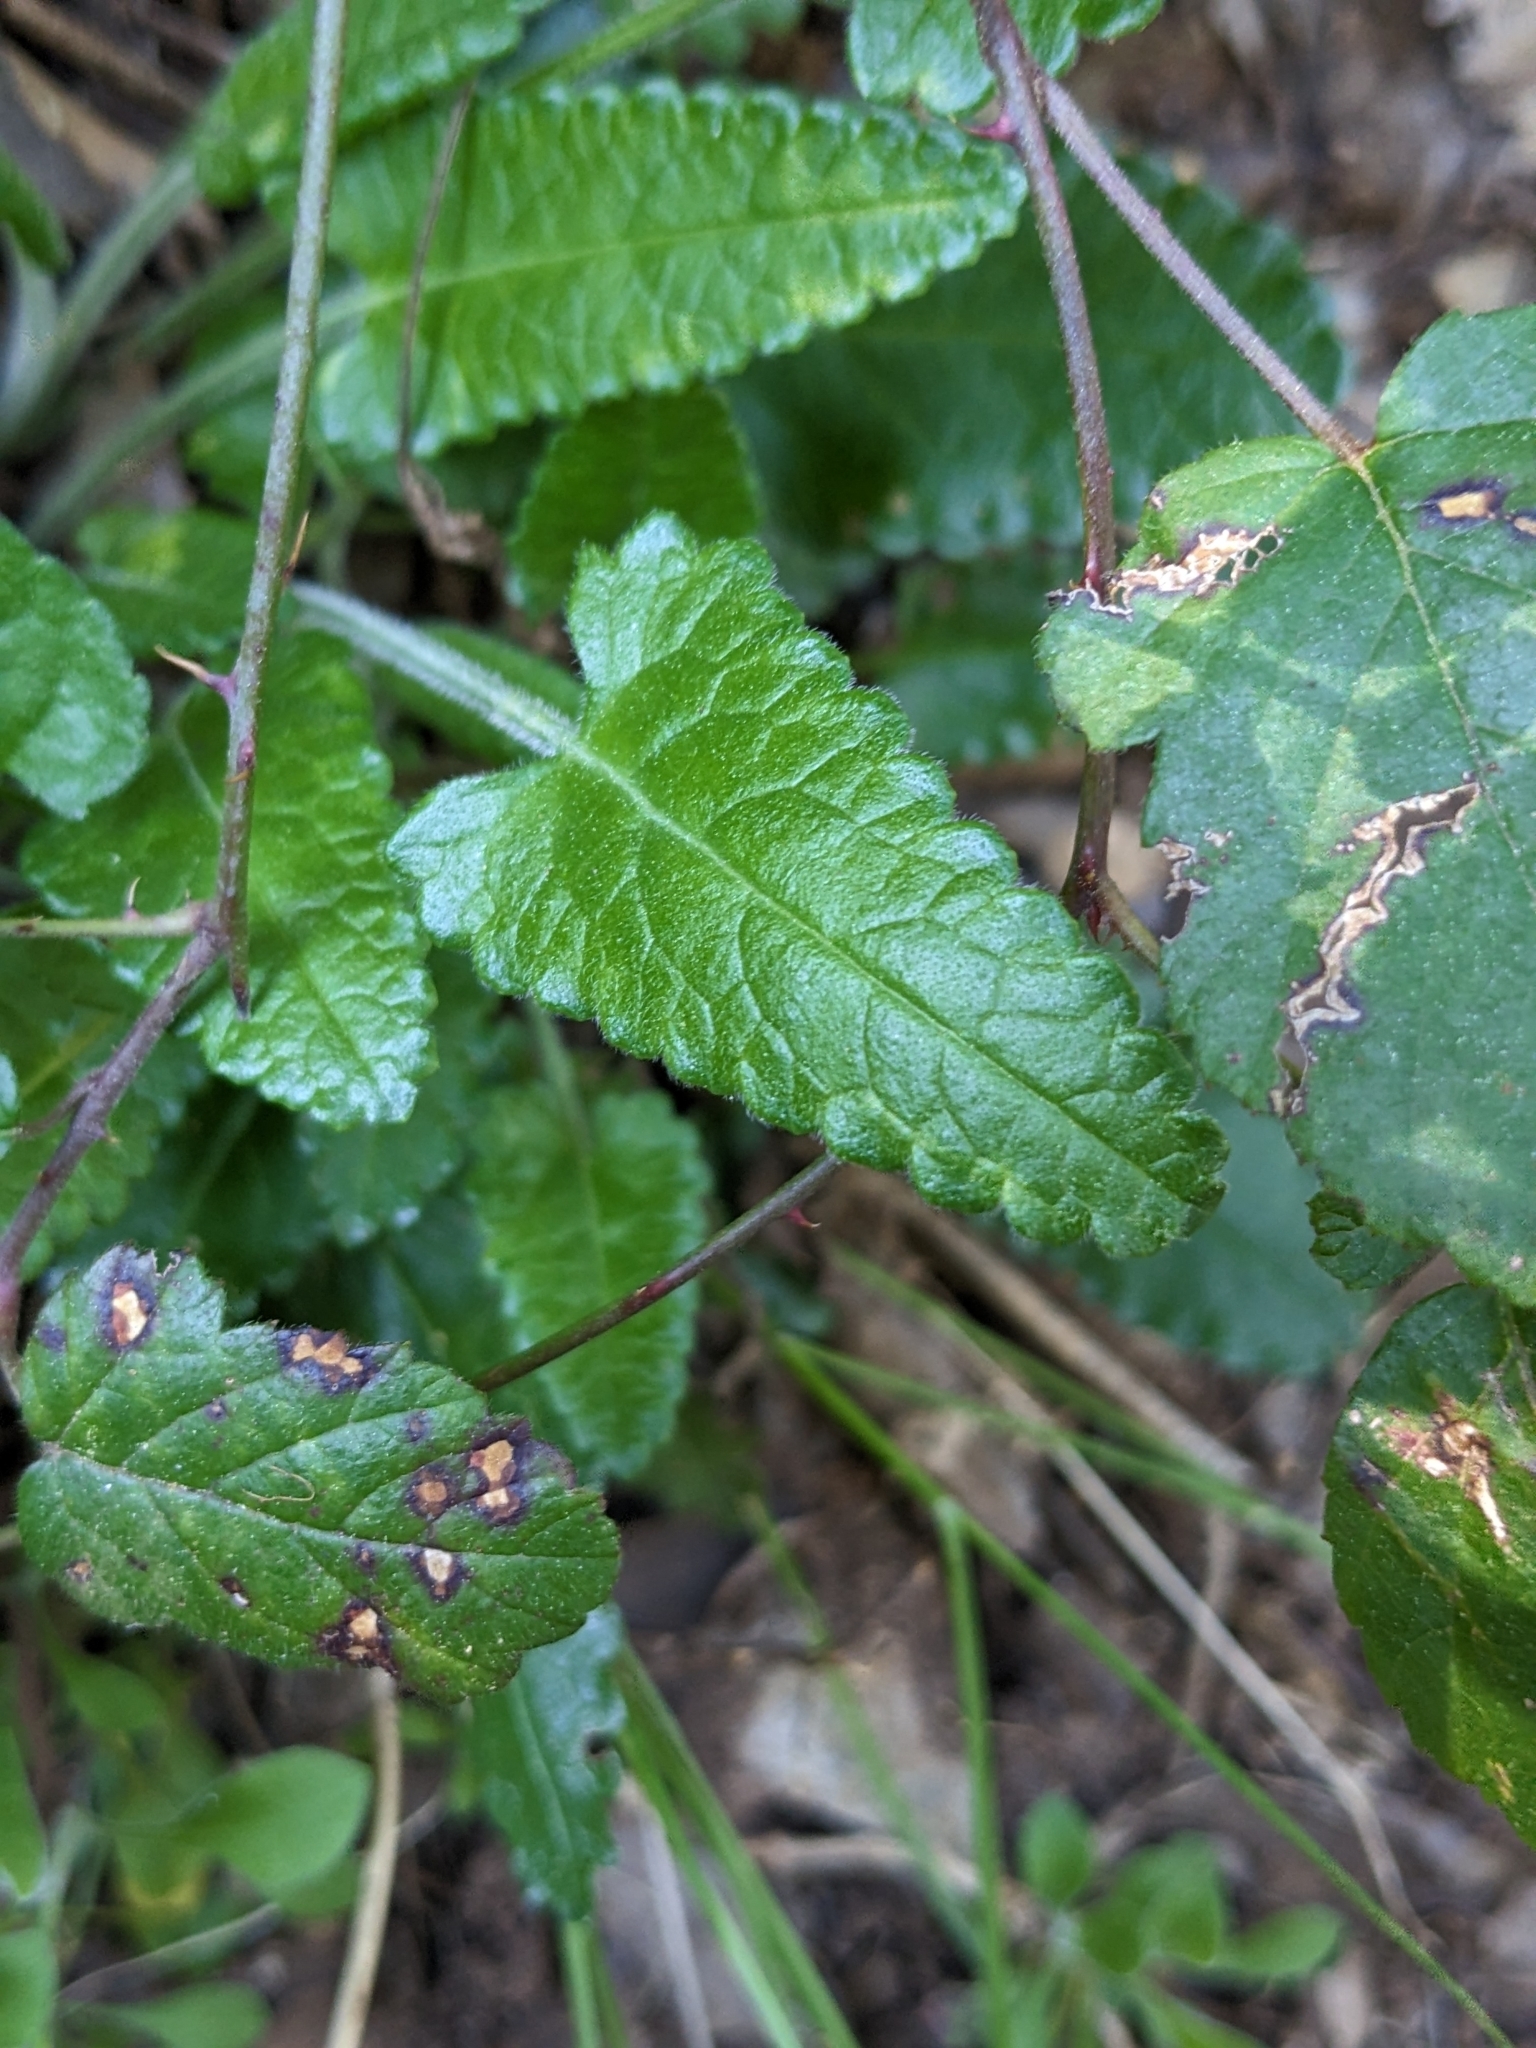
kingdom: Plantae
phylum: Tracheophyta
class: Magnoliopsida
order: Lamiales
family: Lamiaceae
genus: Betonica
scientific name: Betonica officinalis
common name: Bishop's-wort
